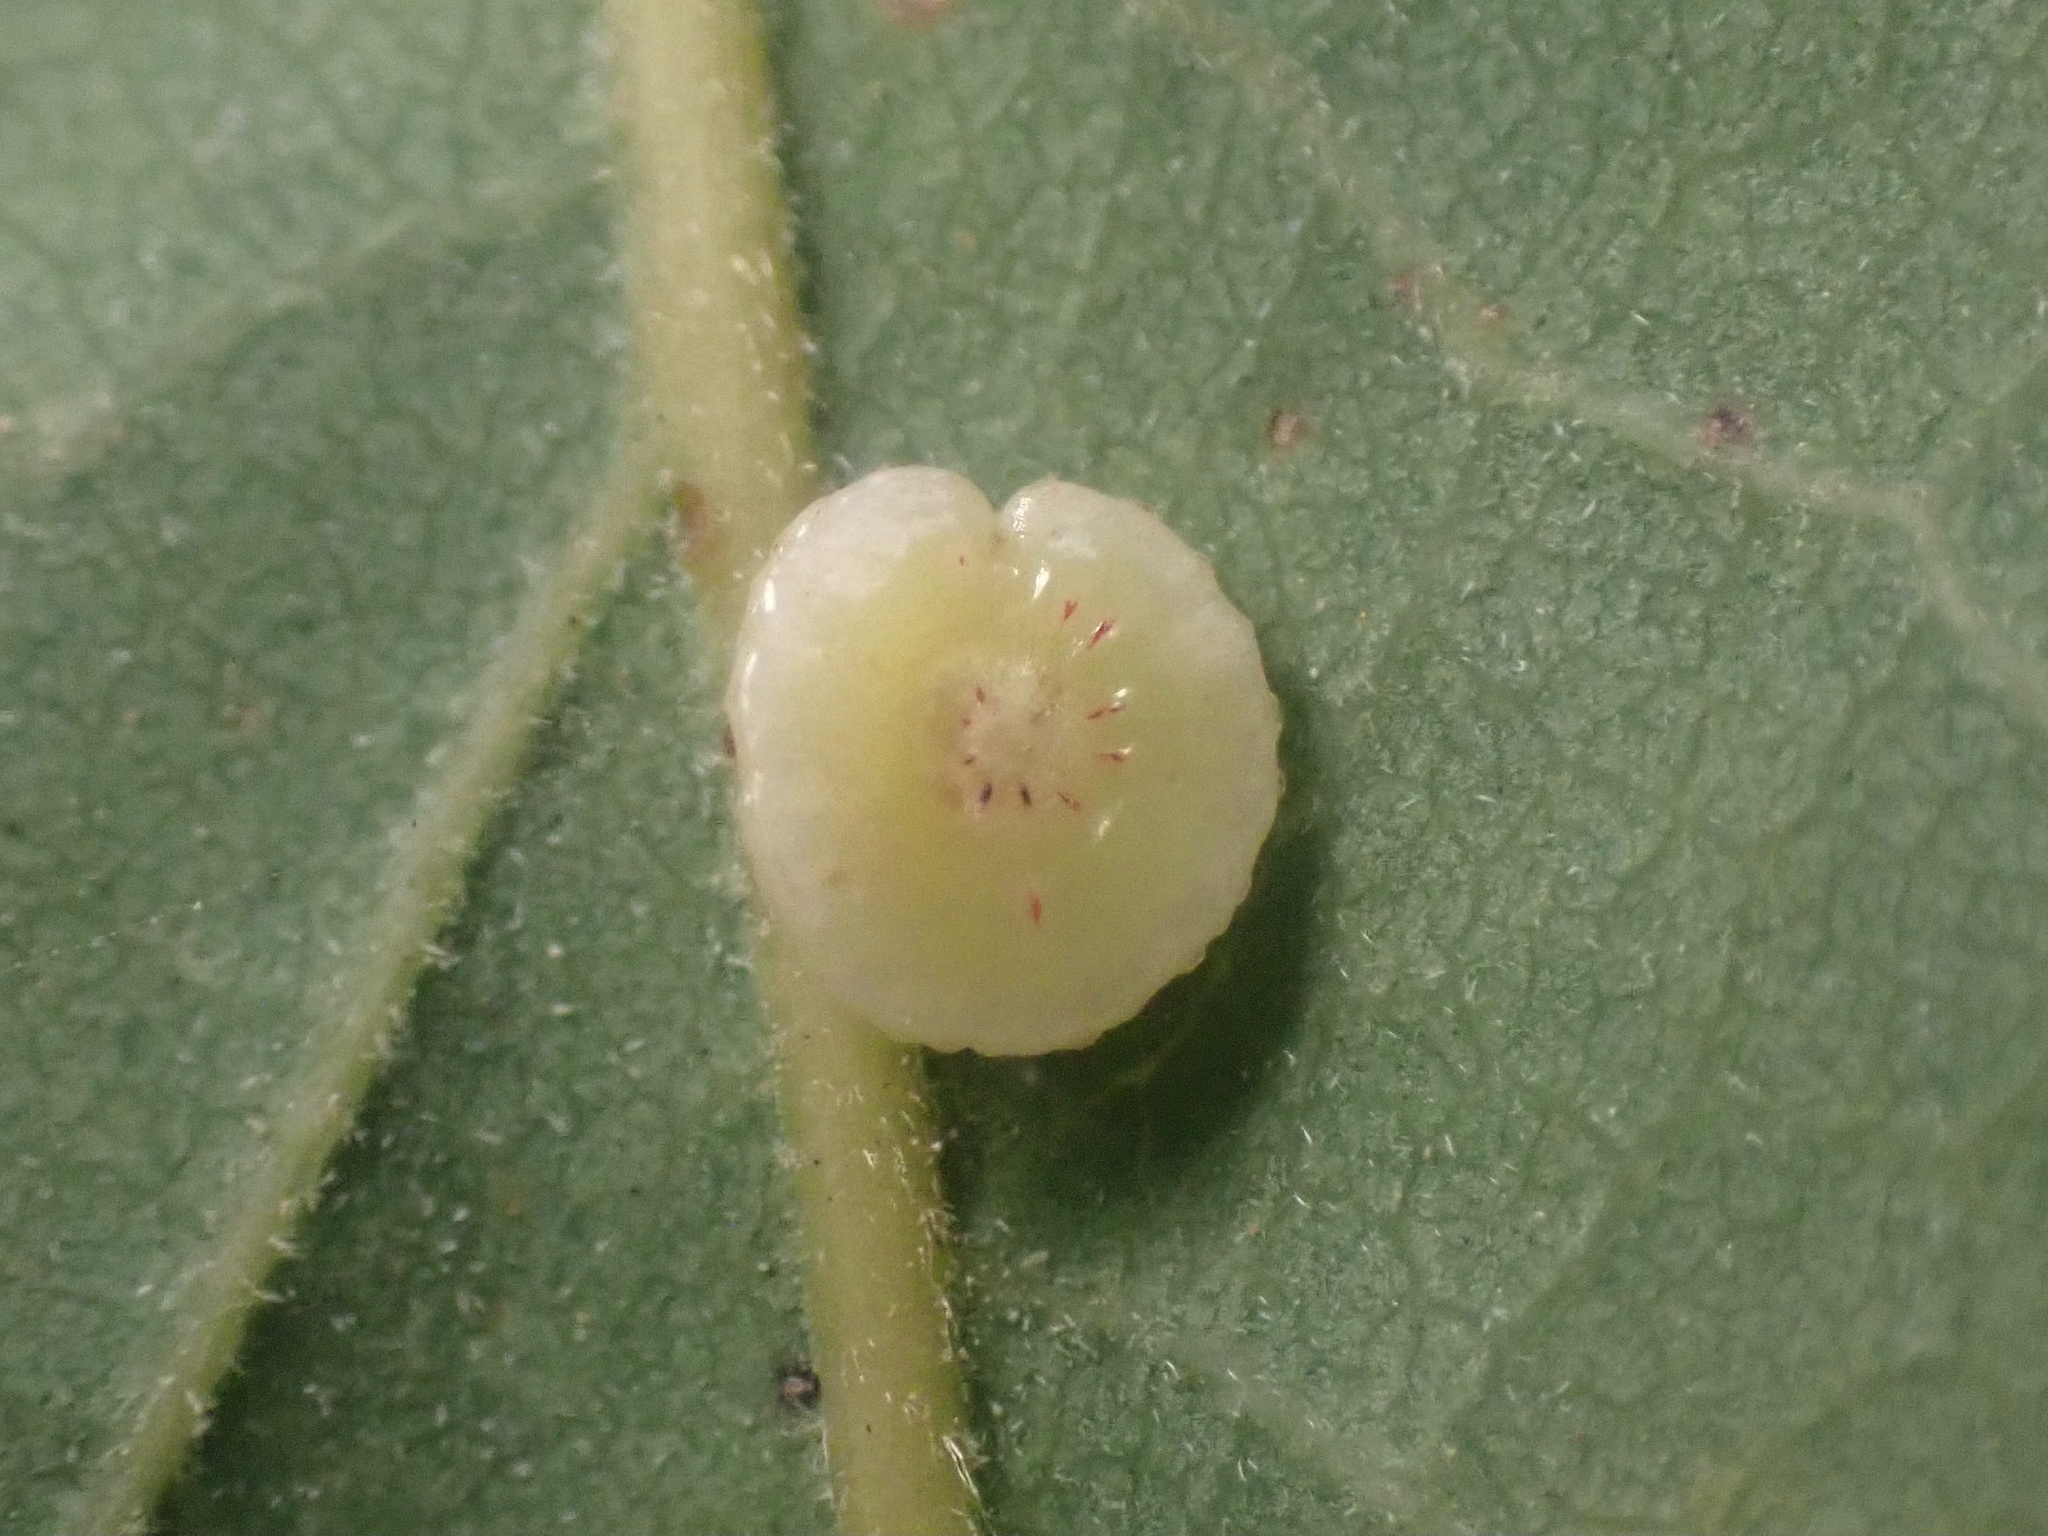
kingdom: Animalia
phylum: Arthropoda
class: Insecta
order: Hymenoptera
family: Cynipidae
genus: Andricus
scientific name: Andricus
